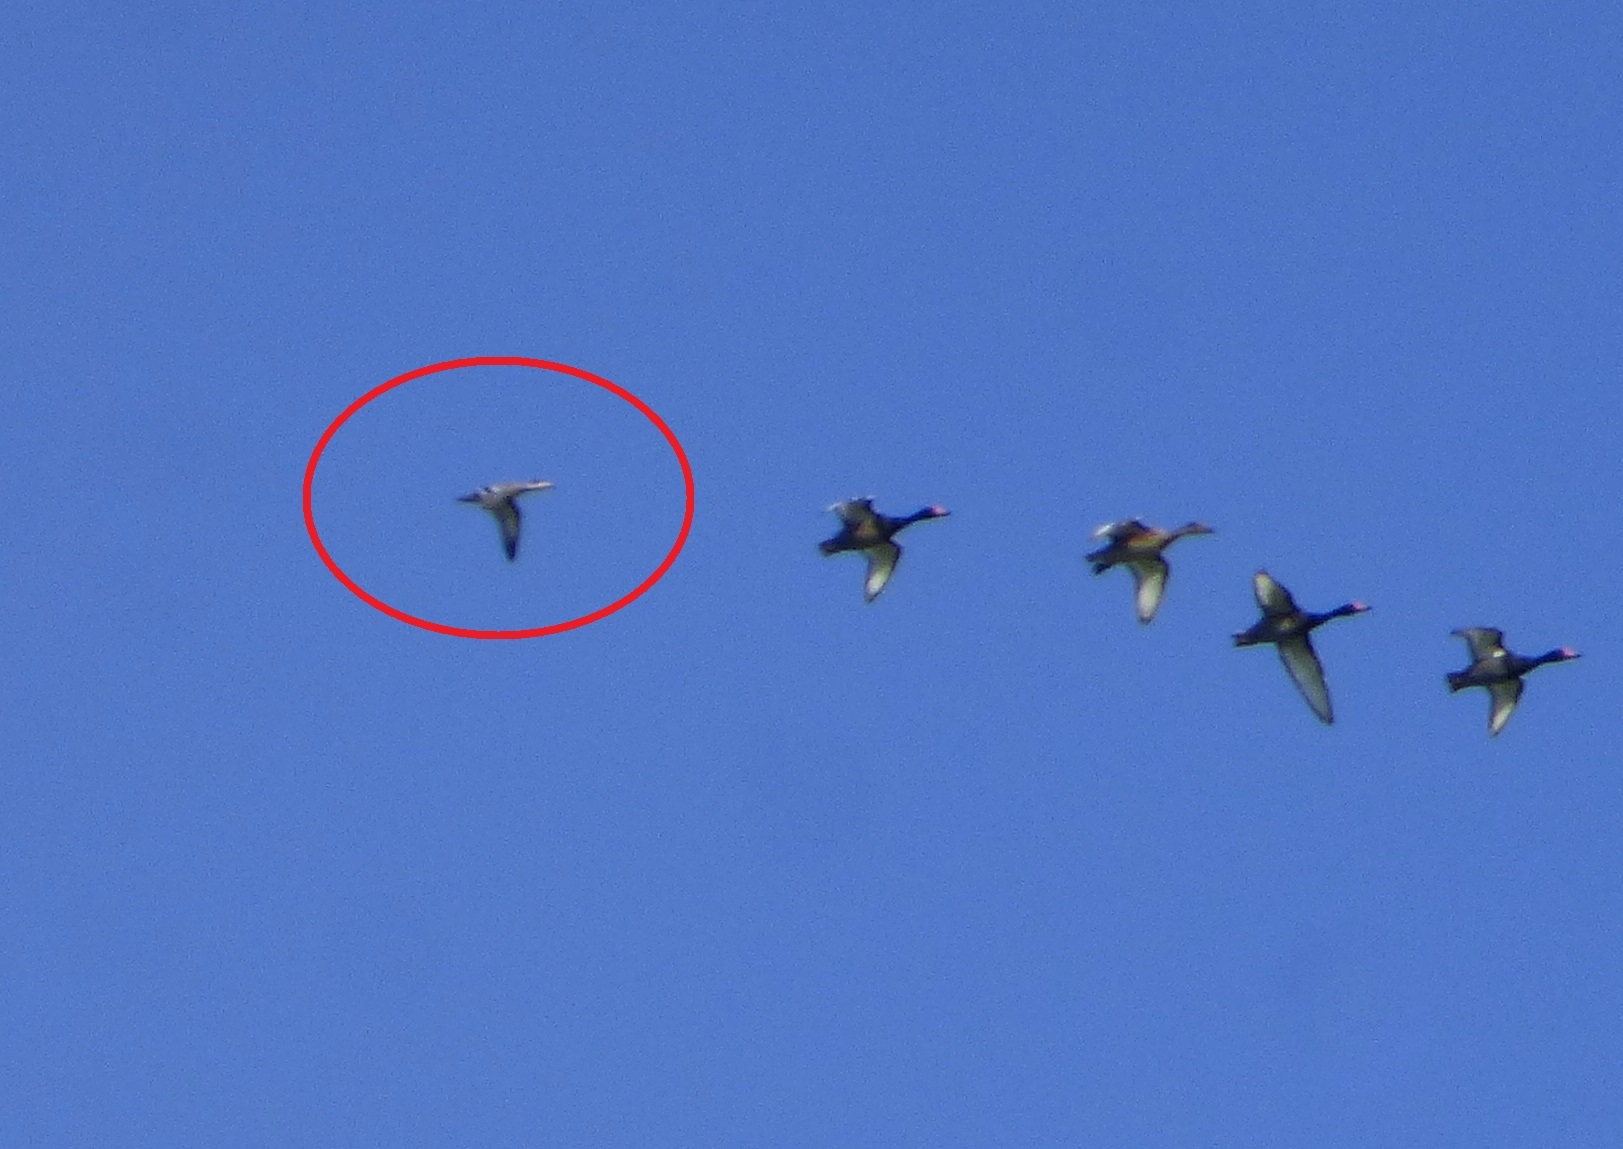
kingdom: Animalia
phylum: Chordata
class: Aves
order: Anseriformes
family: Anatidae
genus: Spatula
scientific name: Spatula versicolor
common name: Silver teal
